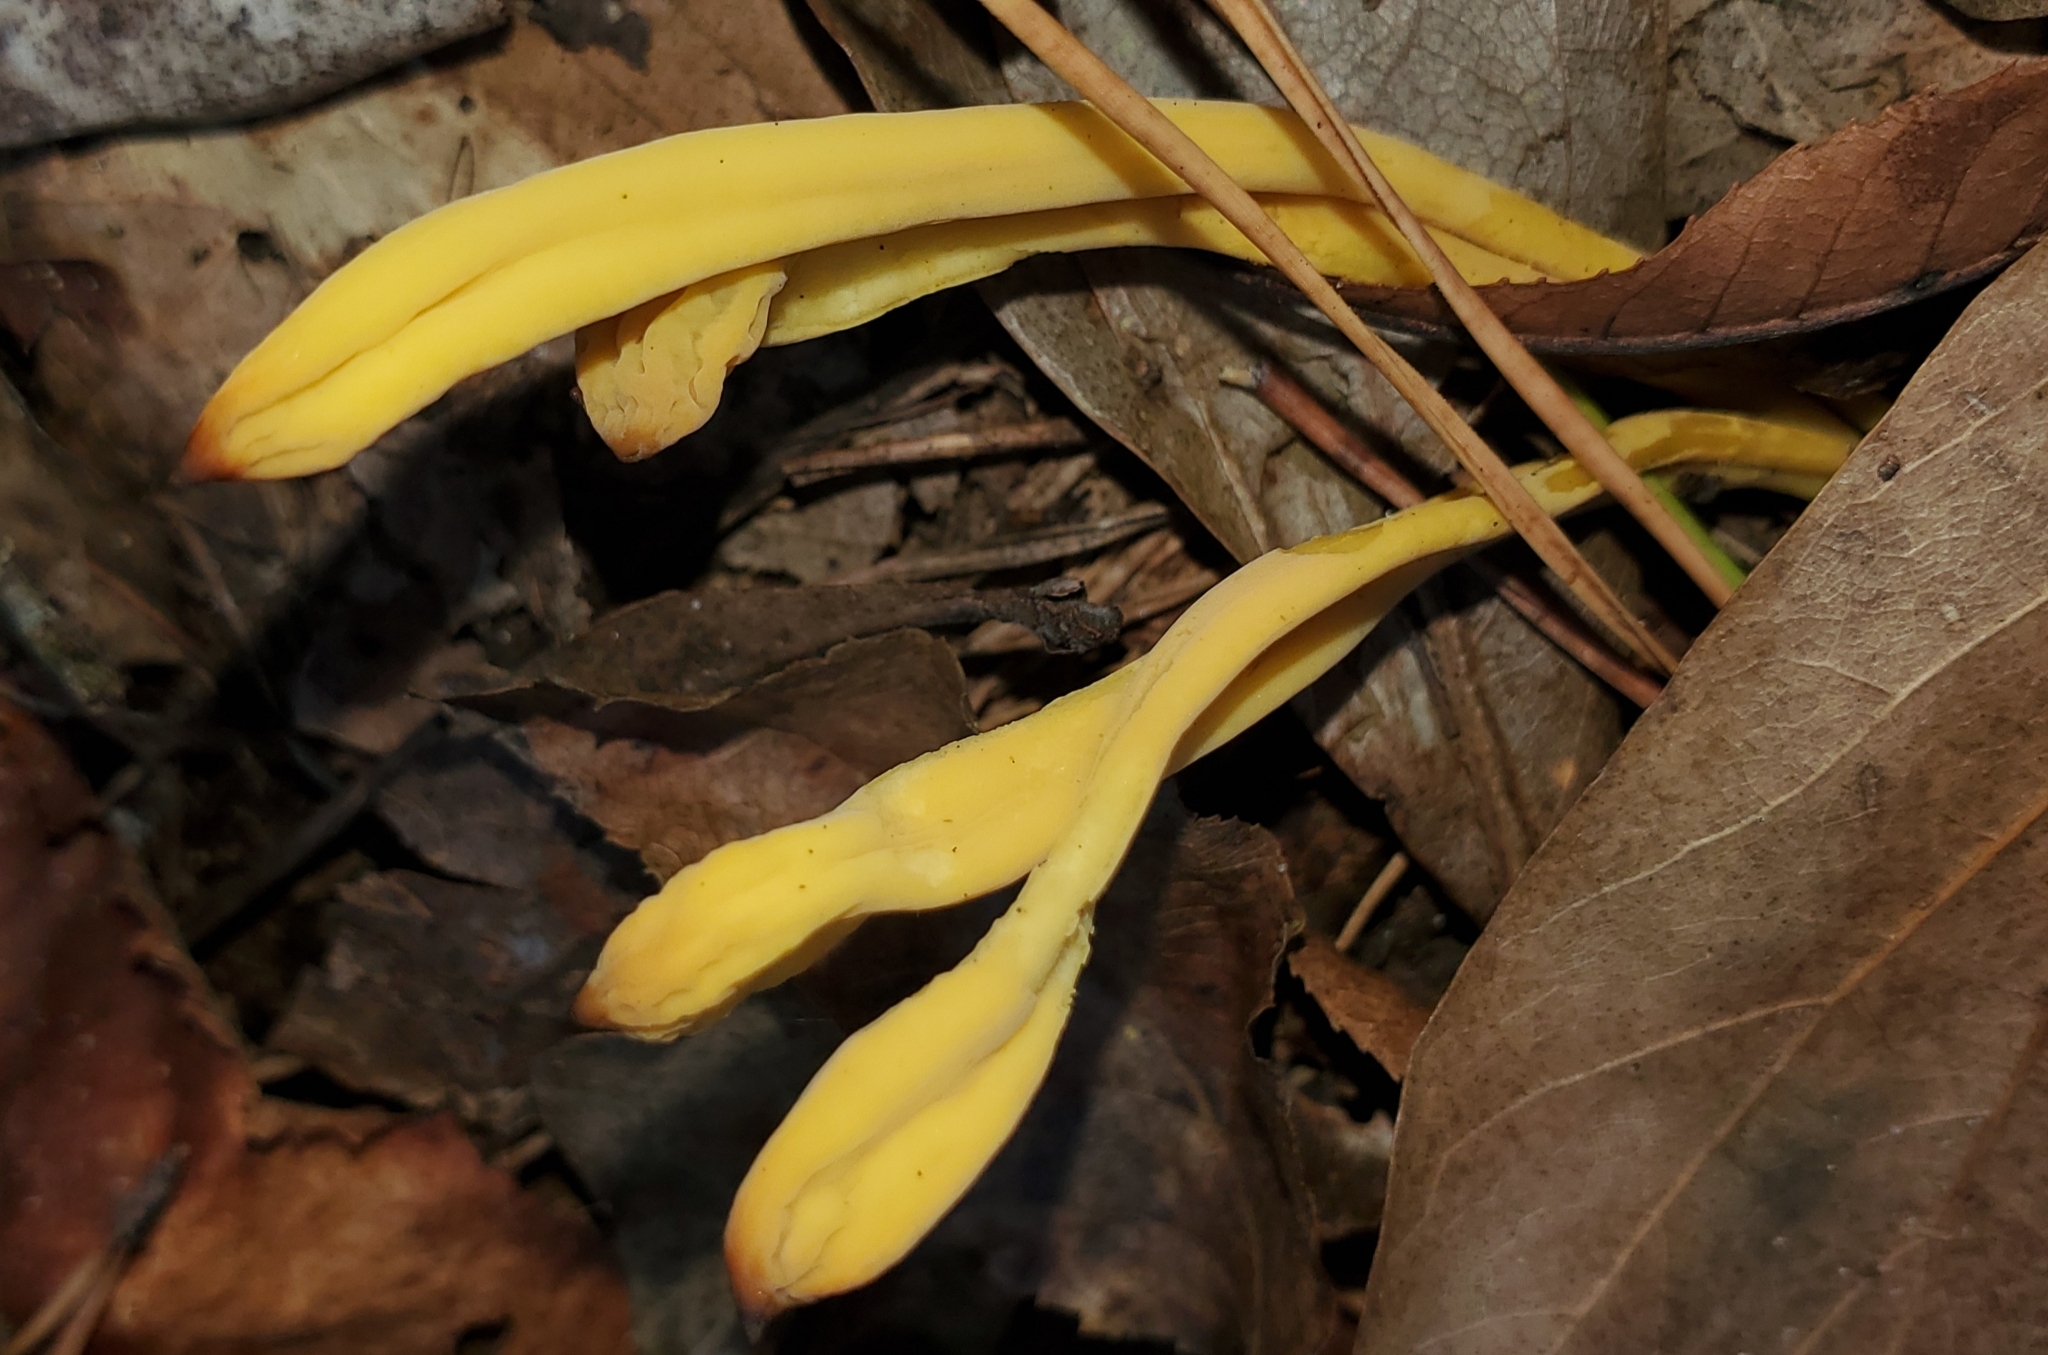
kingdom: Fungi
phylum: Basidiomycota
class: Agaricomycetes
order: Agaricales
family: Clavariaceae
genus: Clavulinopsis
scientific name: Clavulinopsis fusiformis
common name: Golden spindles
